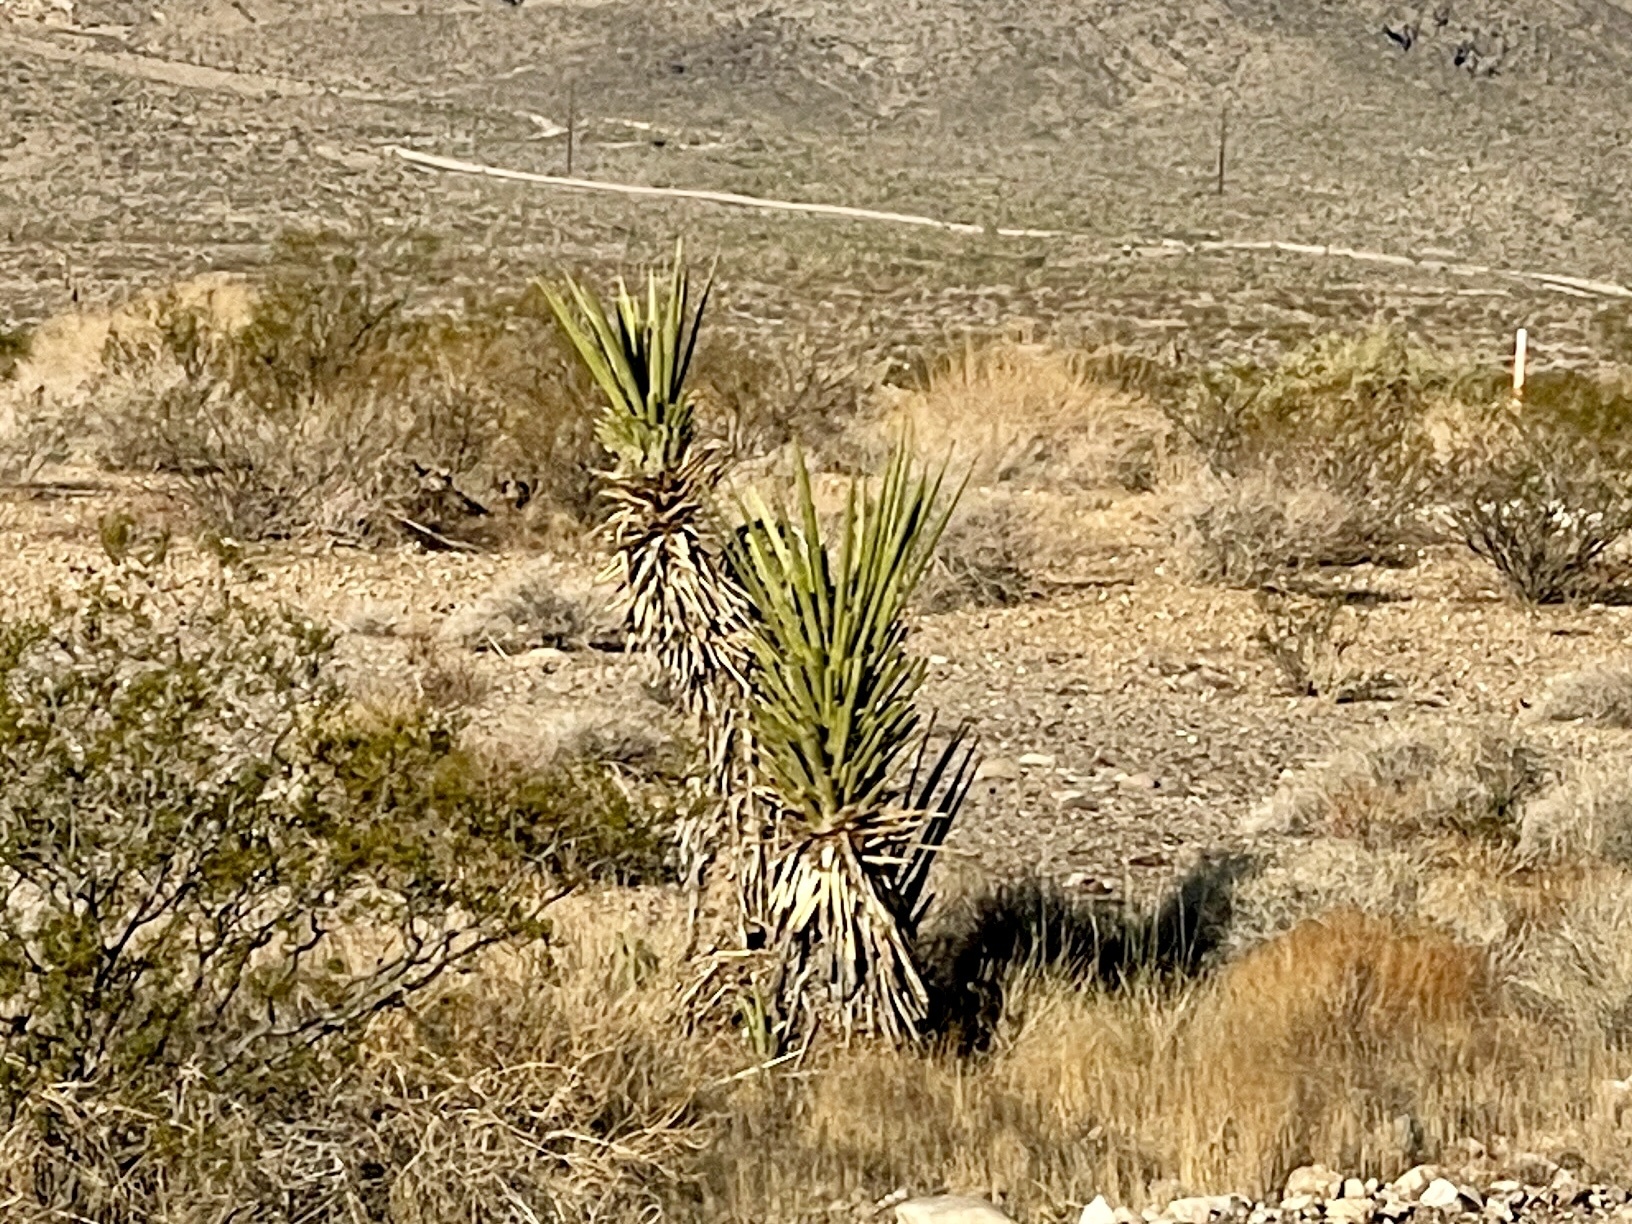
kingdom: Plantae
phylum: Tracheophyta
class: Liliopsida
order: Asparagales
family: Asparagaceae
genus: Yucca
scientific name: Yucca schidigera
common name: Mojave yucca
